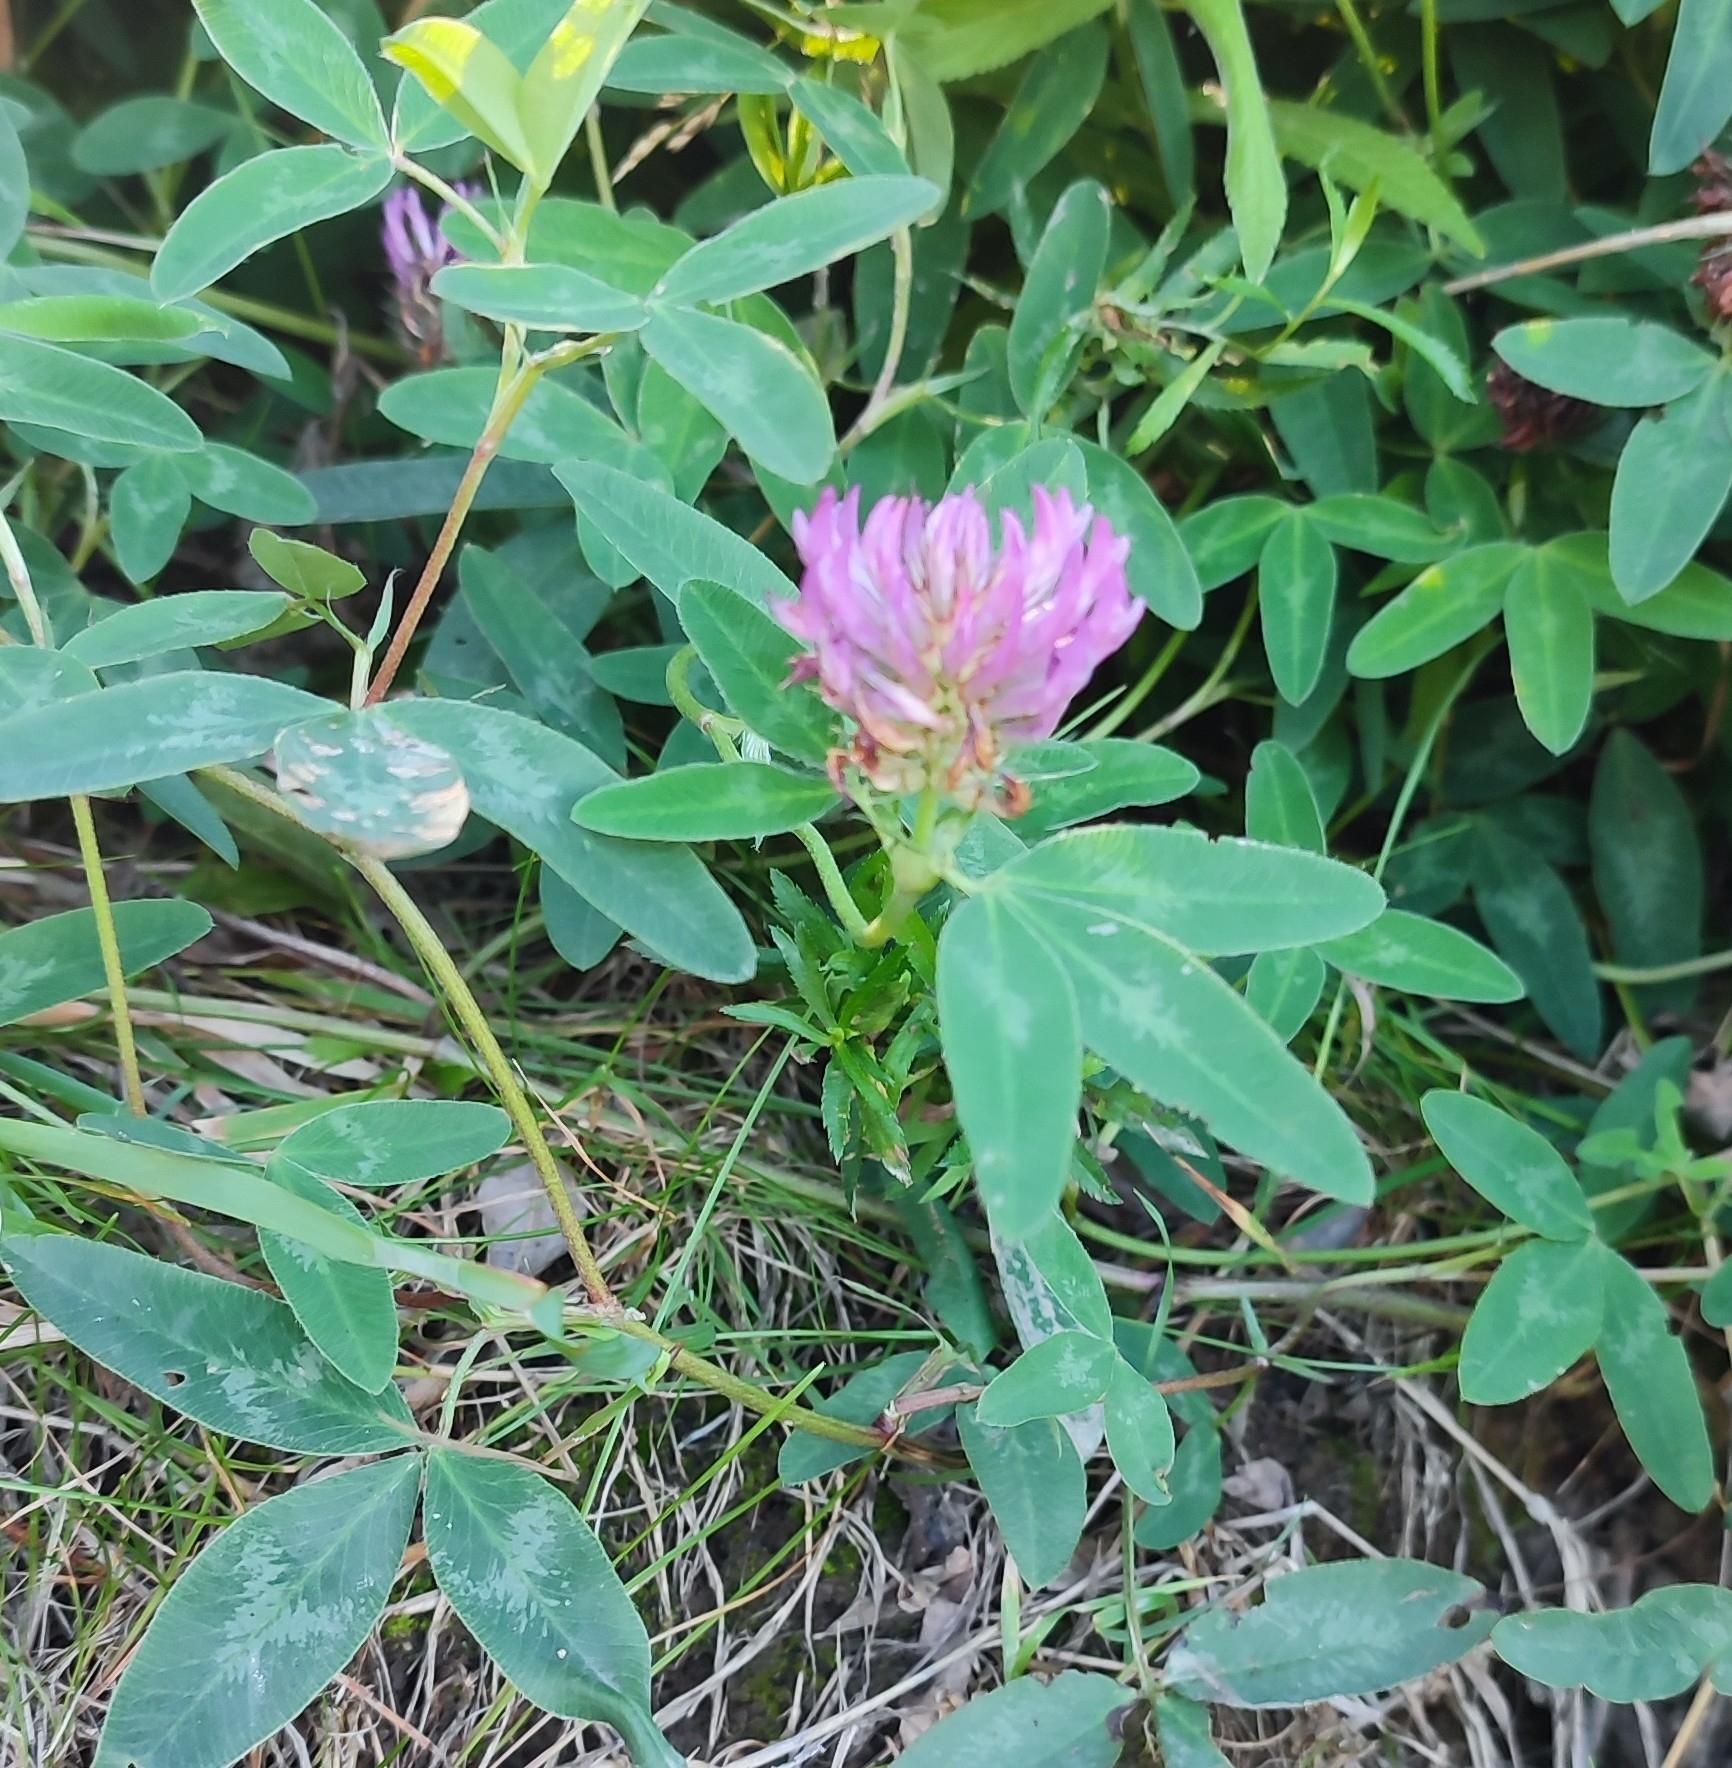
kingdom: Plantae
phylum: Tracheophyta
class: Magnoliopsida
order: Fabales
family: Fabaceae
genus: Trifolium
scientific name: Trifolium medium
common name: Zigzag clover
